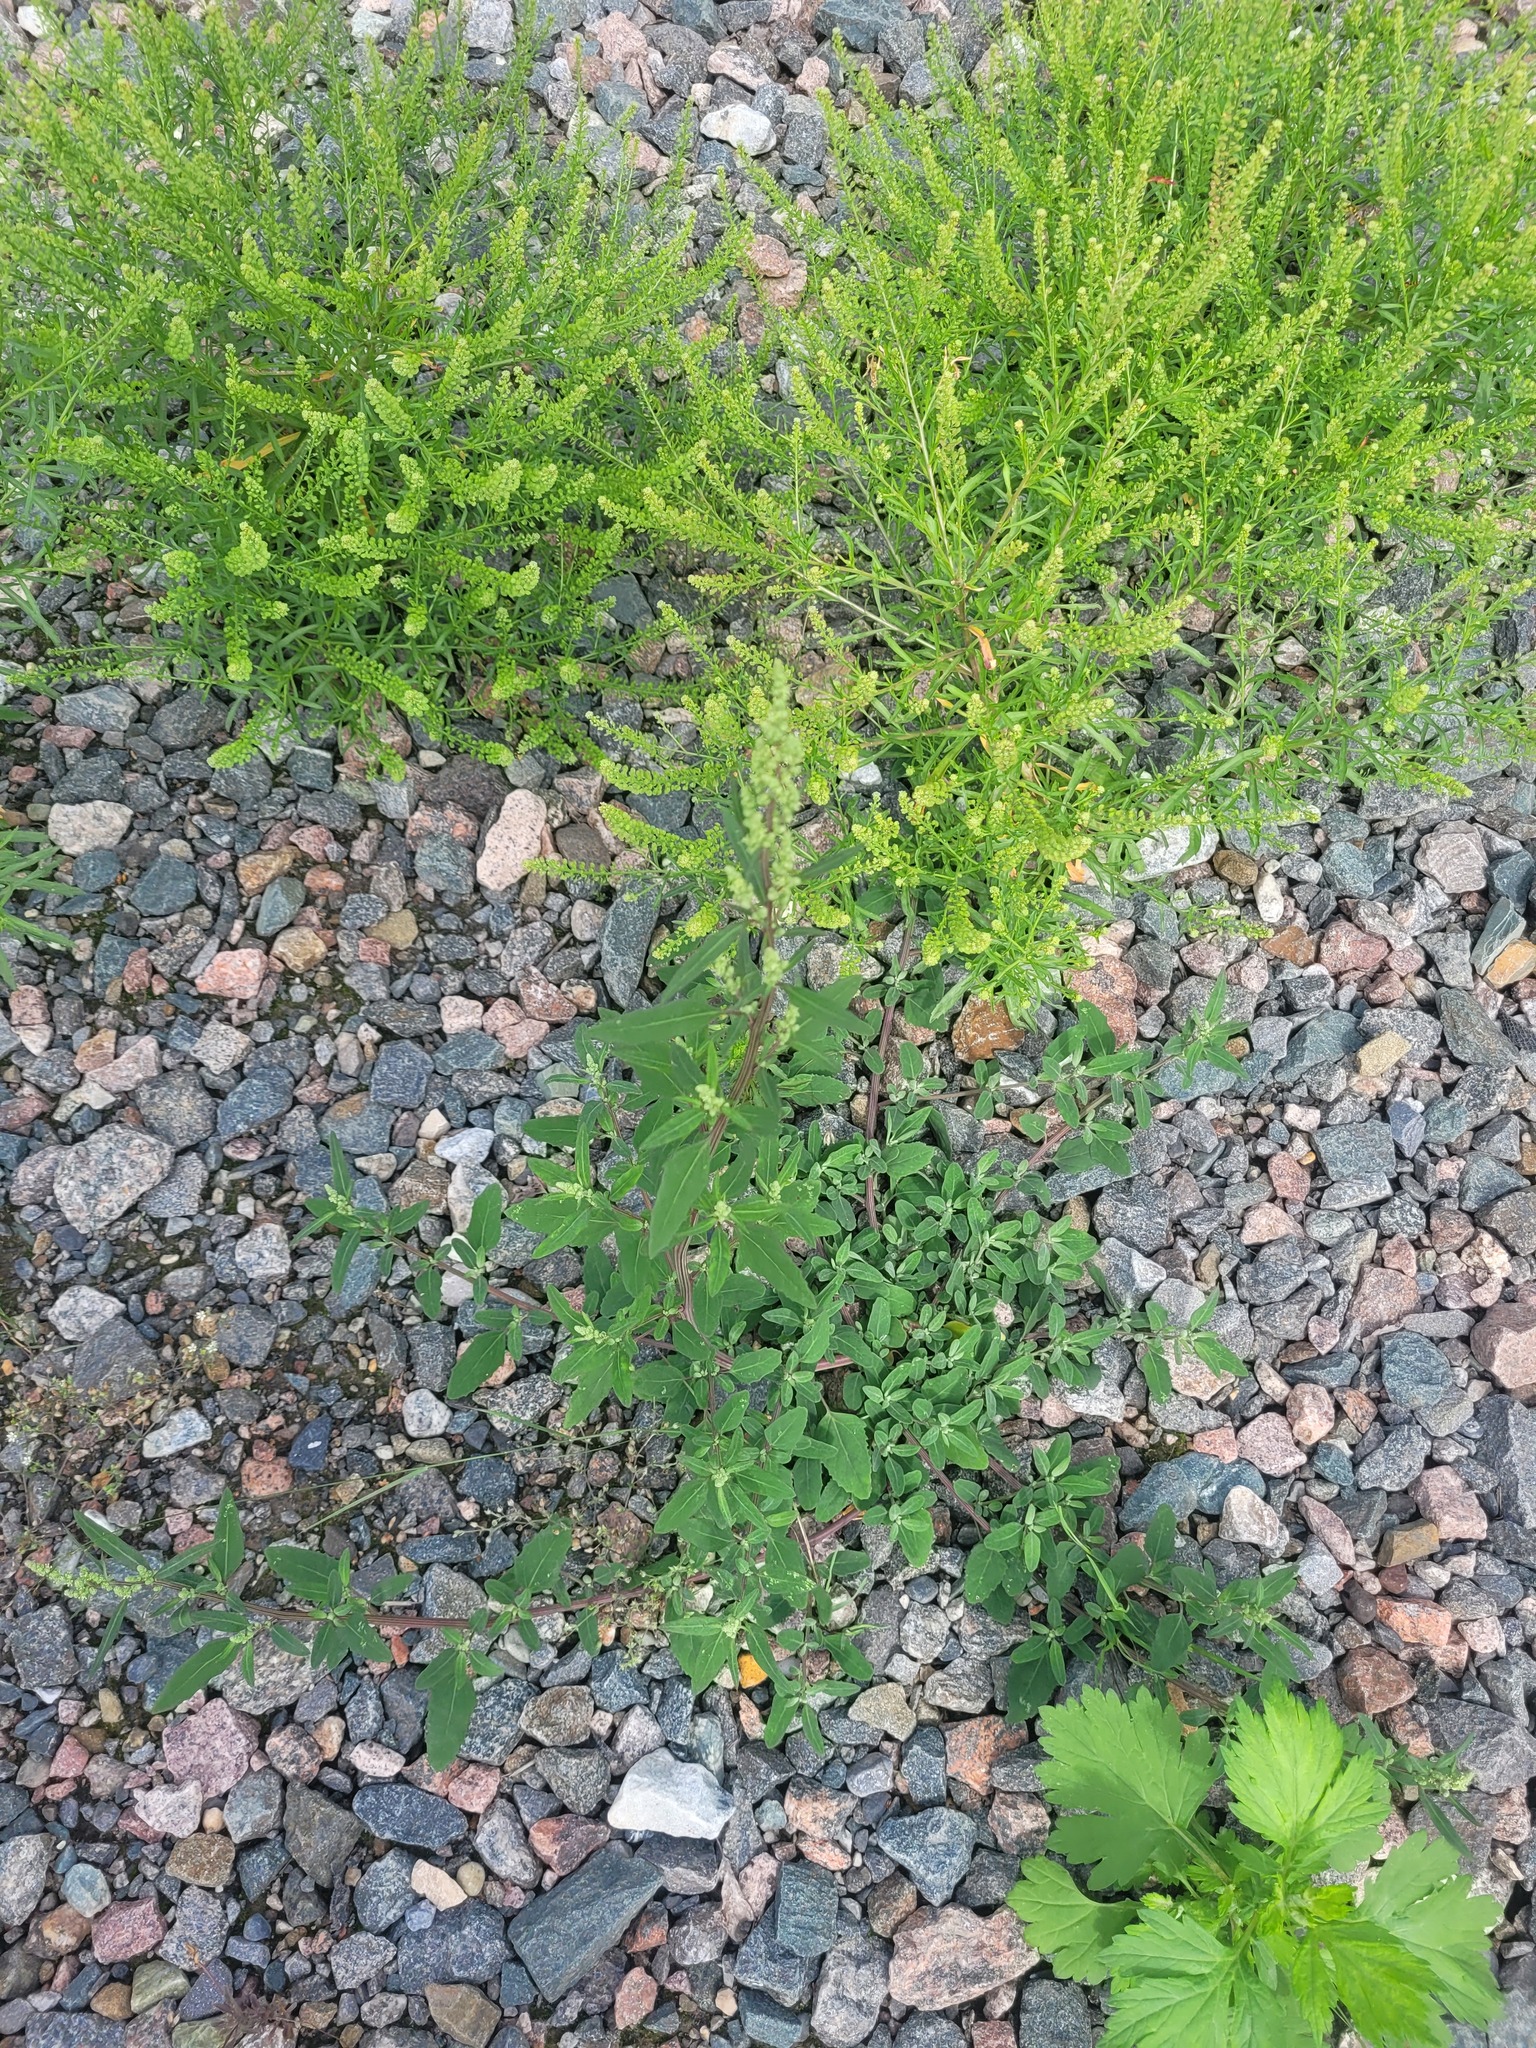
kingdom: Plantae
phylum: Tracheophyta
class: Magnoliopsida
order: Caryophyllales
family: Amaranthaceae
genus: Chenopodium
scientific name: Chenopodium betaceum
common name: Striped goosefoot
